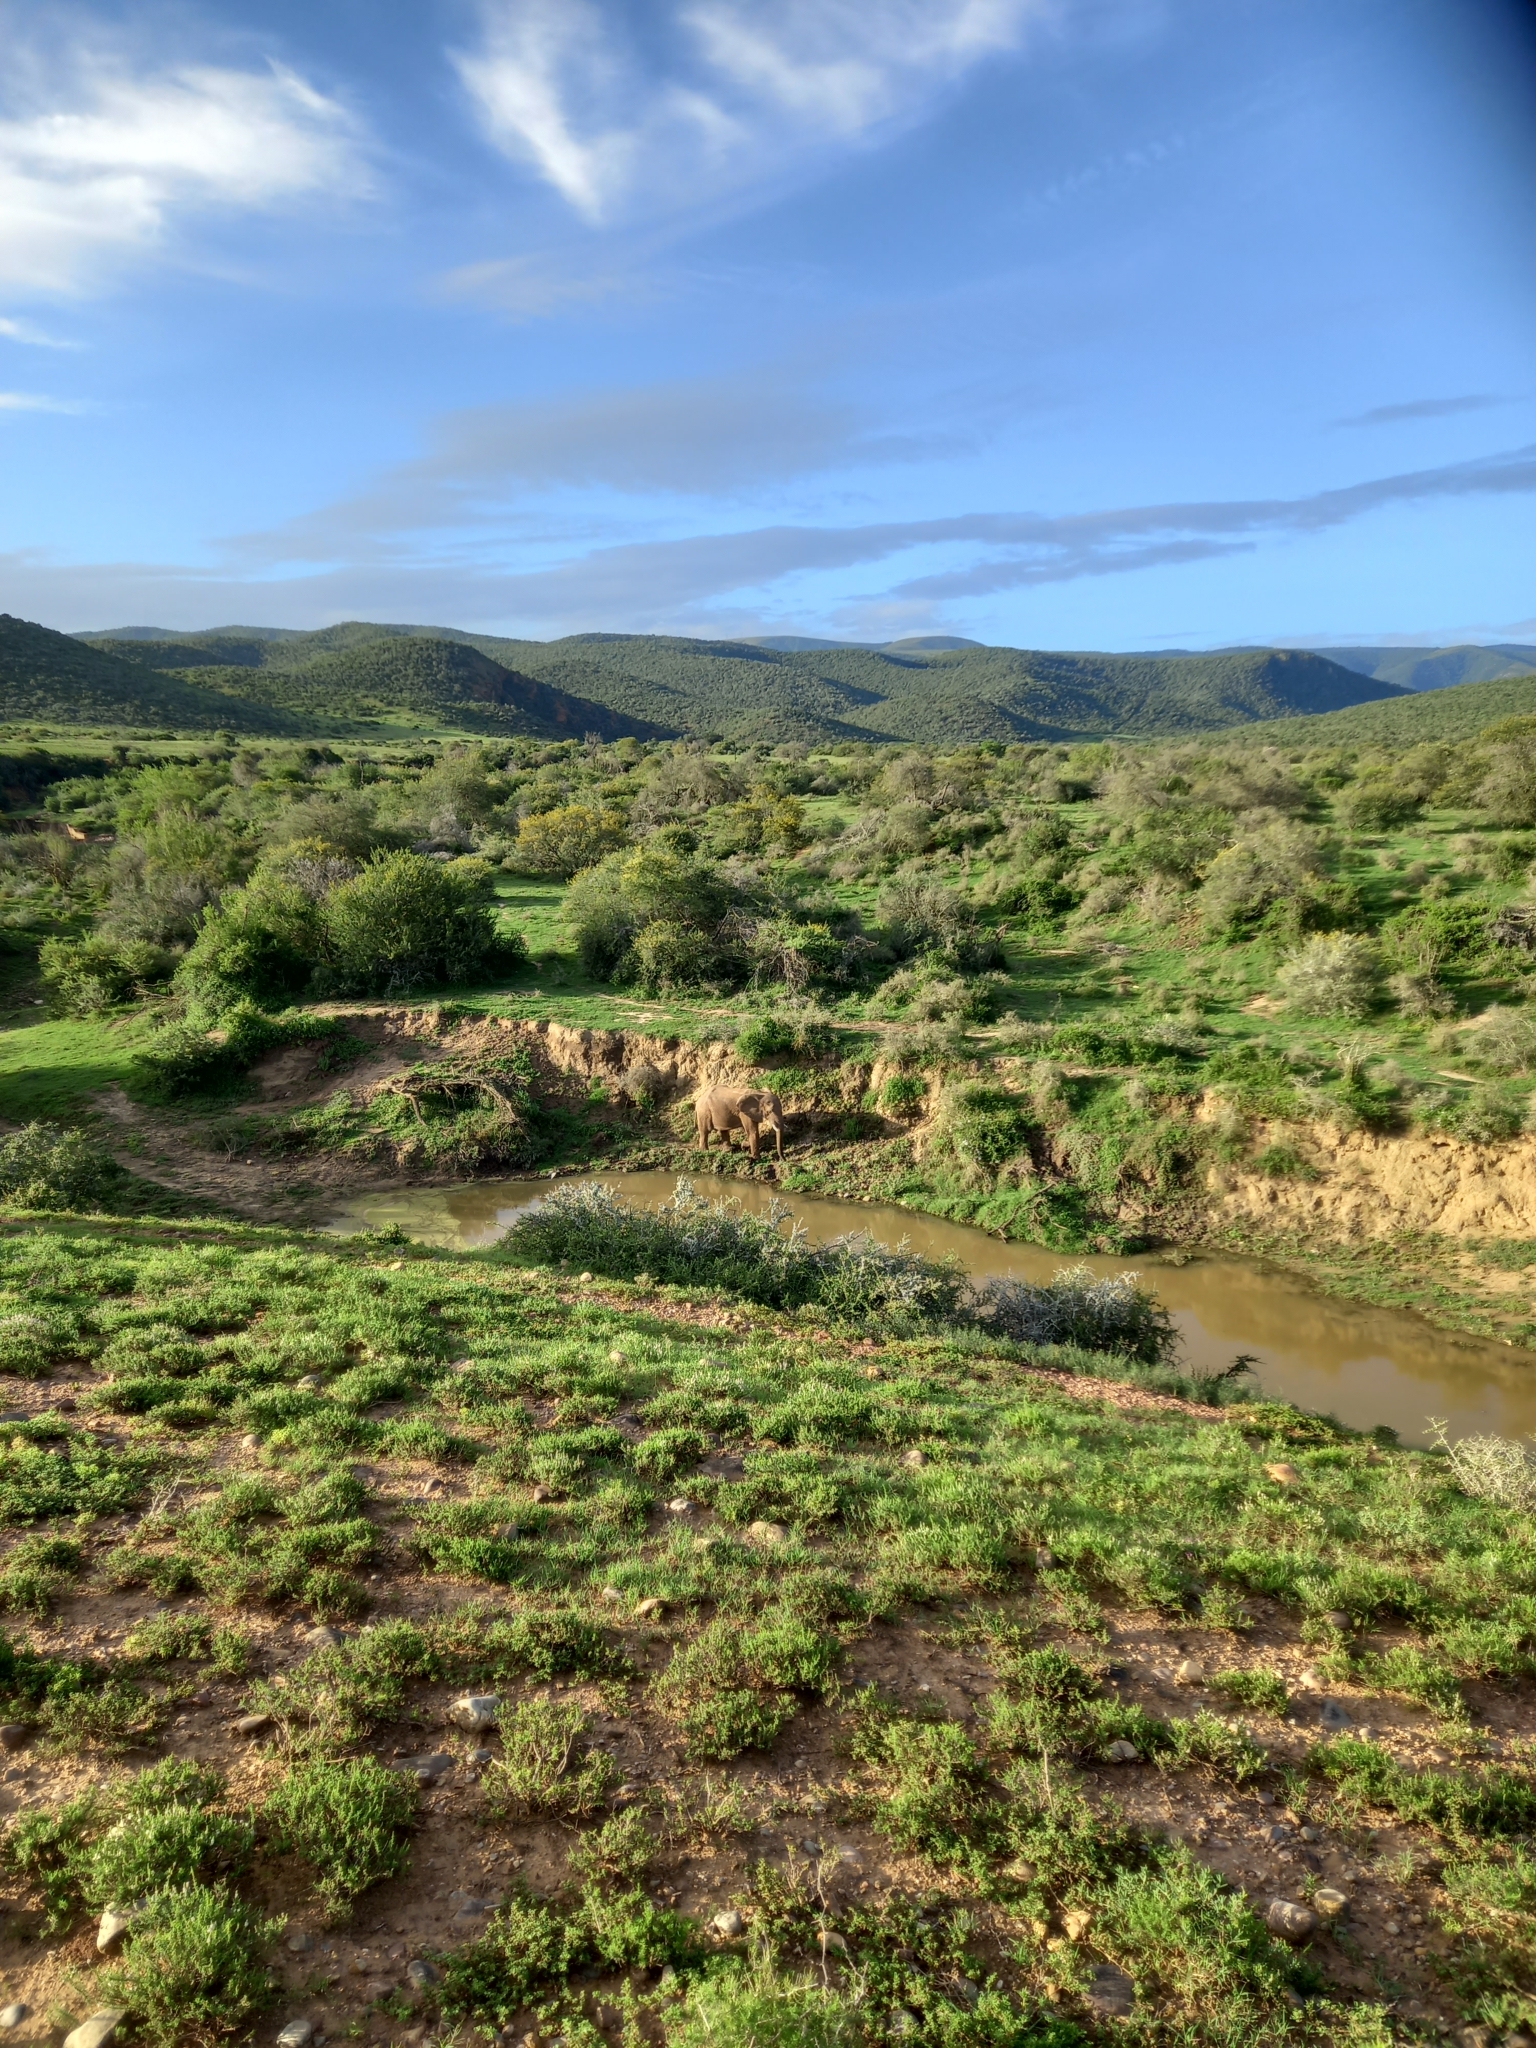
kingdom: Animalia
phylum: Chordata
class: Mammalia
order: Proboscidea
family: Elephantidae
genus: Loxodonta
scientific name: Loxodonta africana
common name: African elephant
